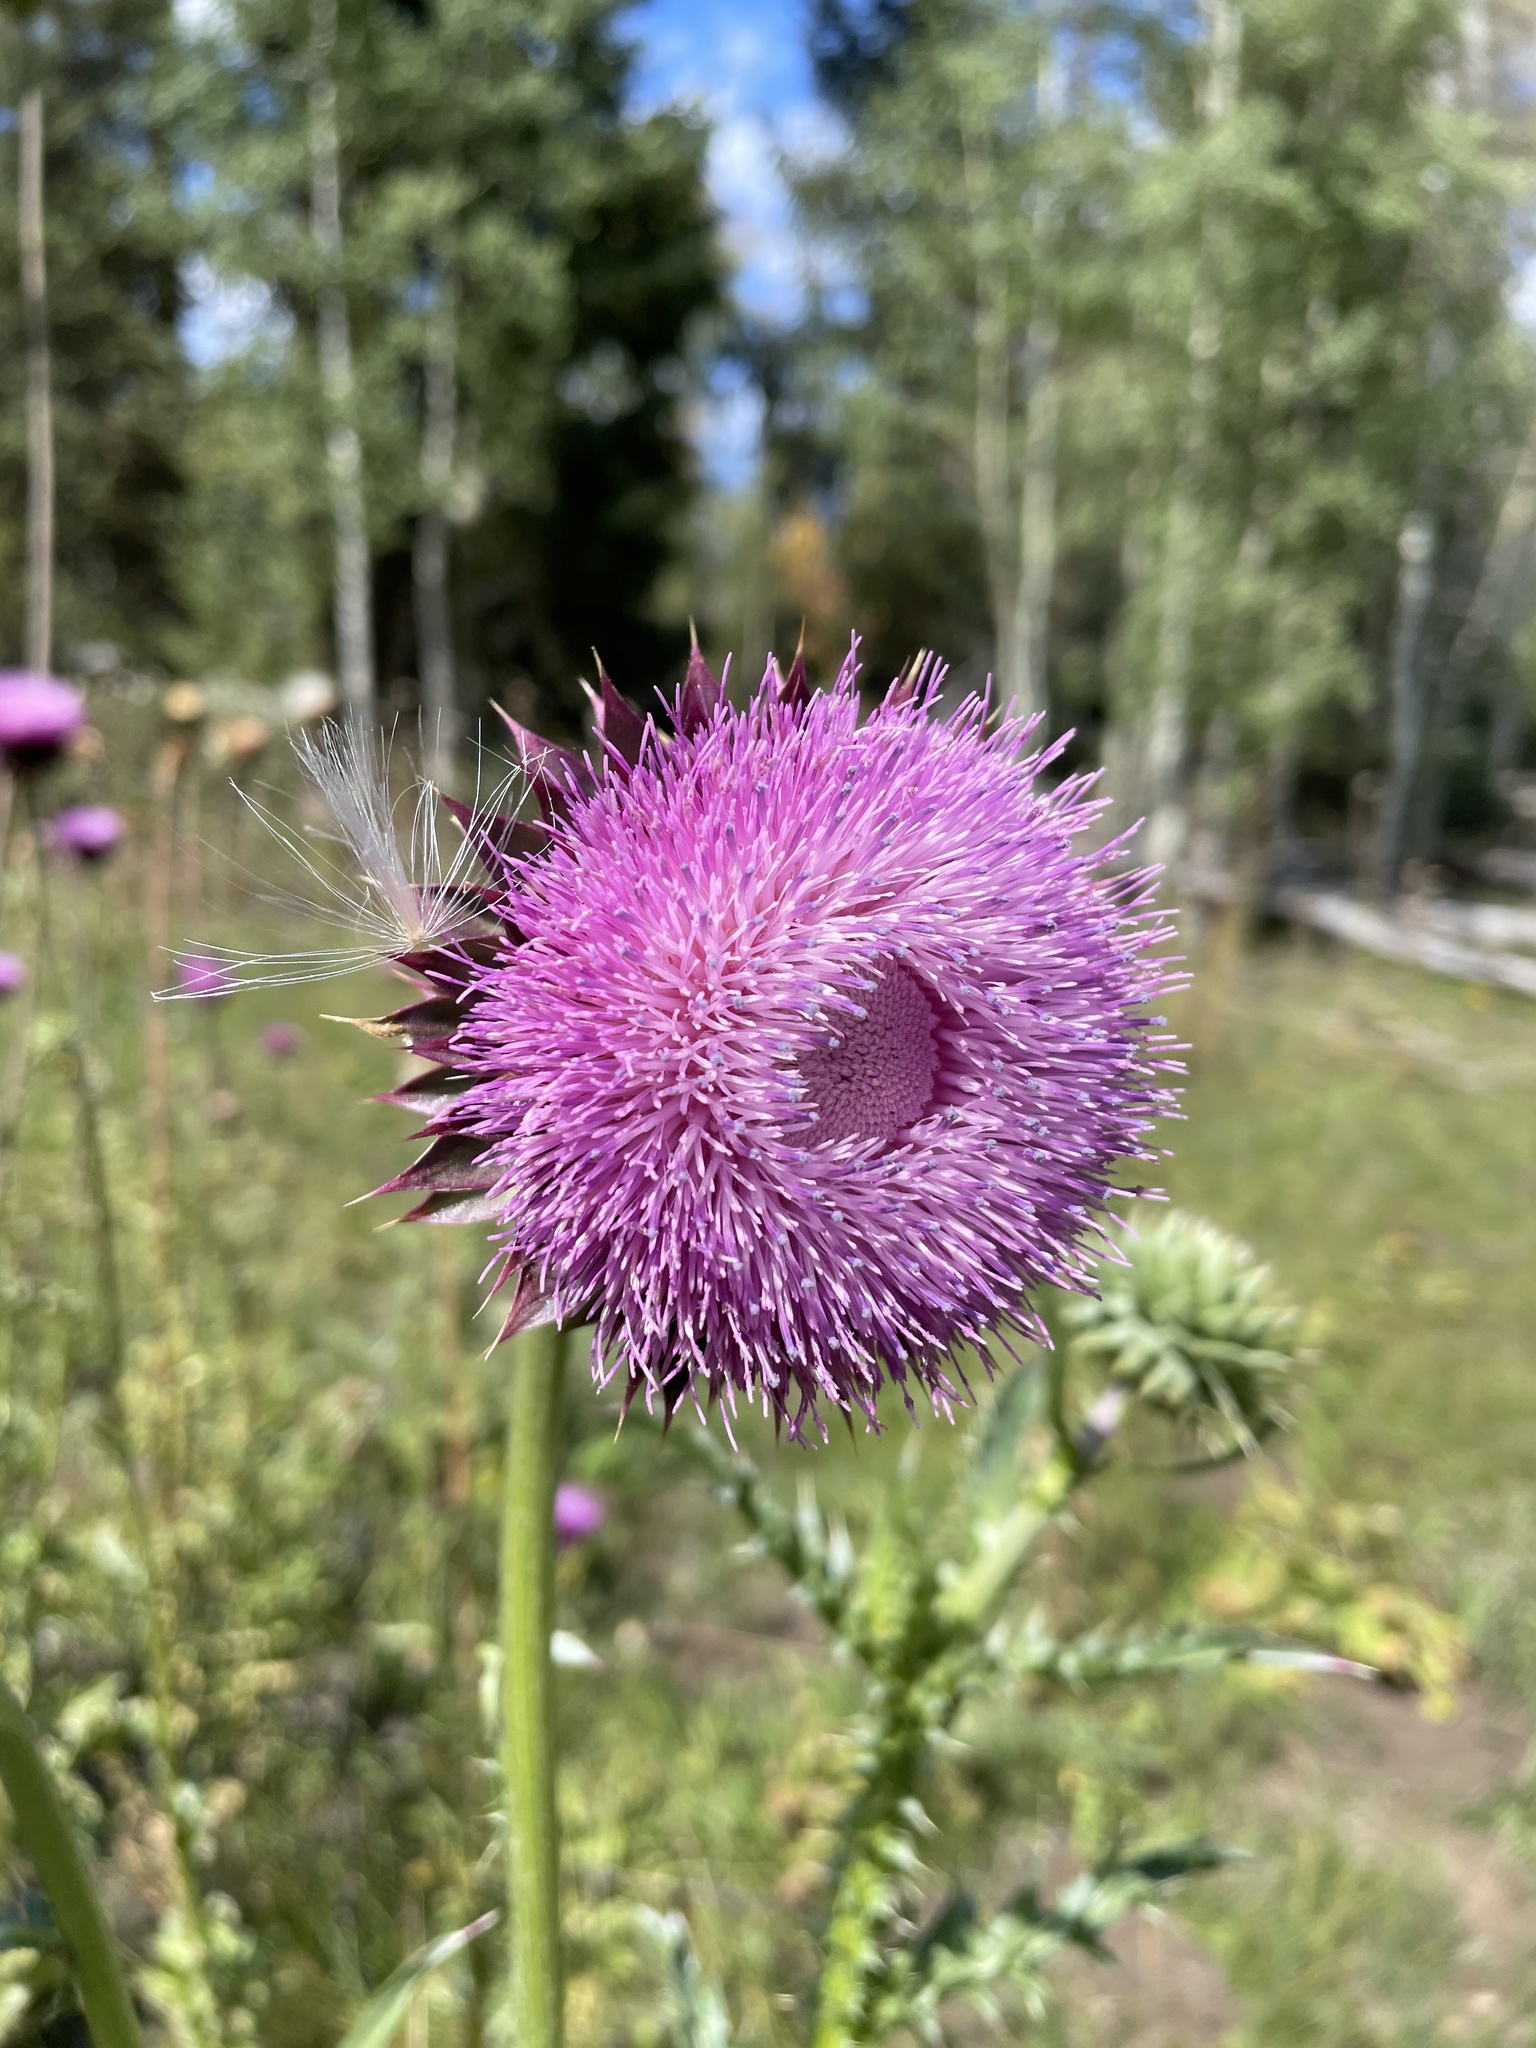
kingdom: Plantae
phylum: Tracheophyta
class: Magnoliopsida
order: Asterales
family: Asteraceae
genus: Carduus
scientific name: Carduus nutans
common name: Musk thistle
